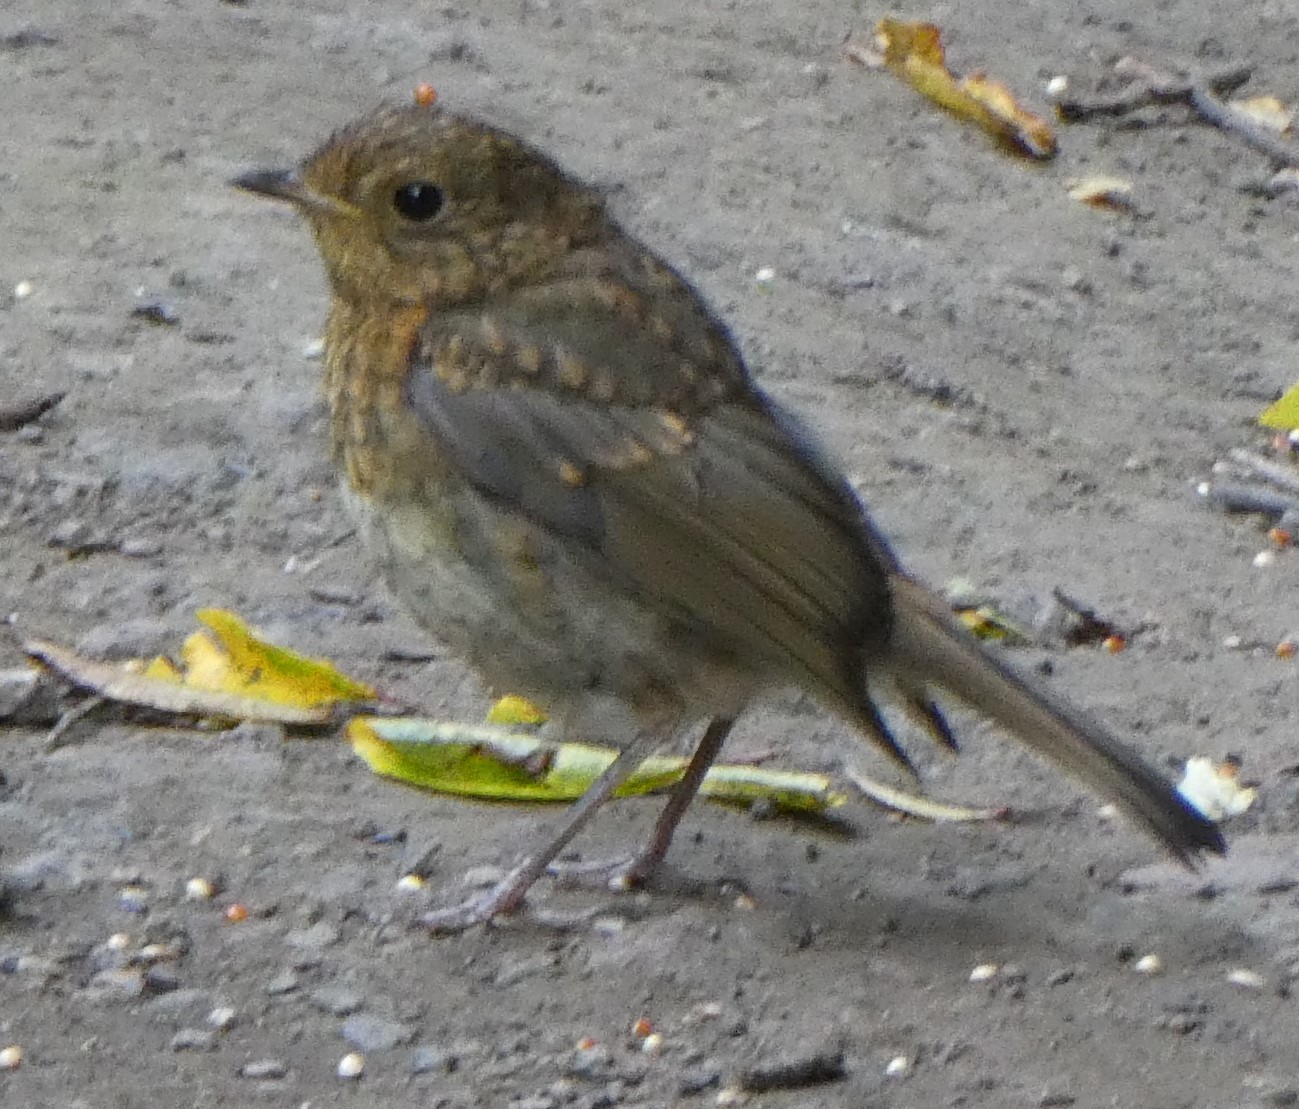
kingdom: Animalia
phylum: Chordata
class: Aves
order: Passeriformes
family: Muscicapidae
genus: Erithacus
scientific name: Erithacus rubecula
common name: European robin
